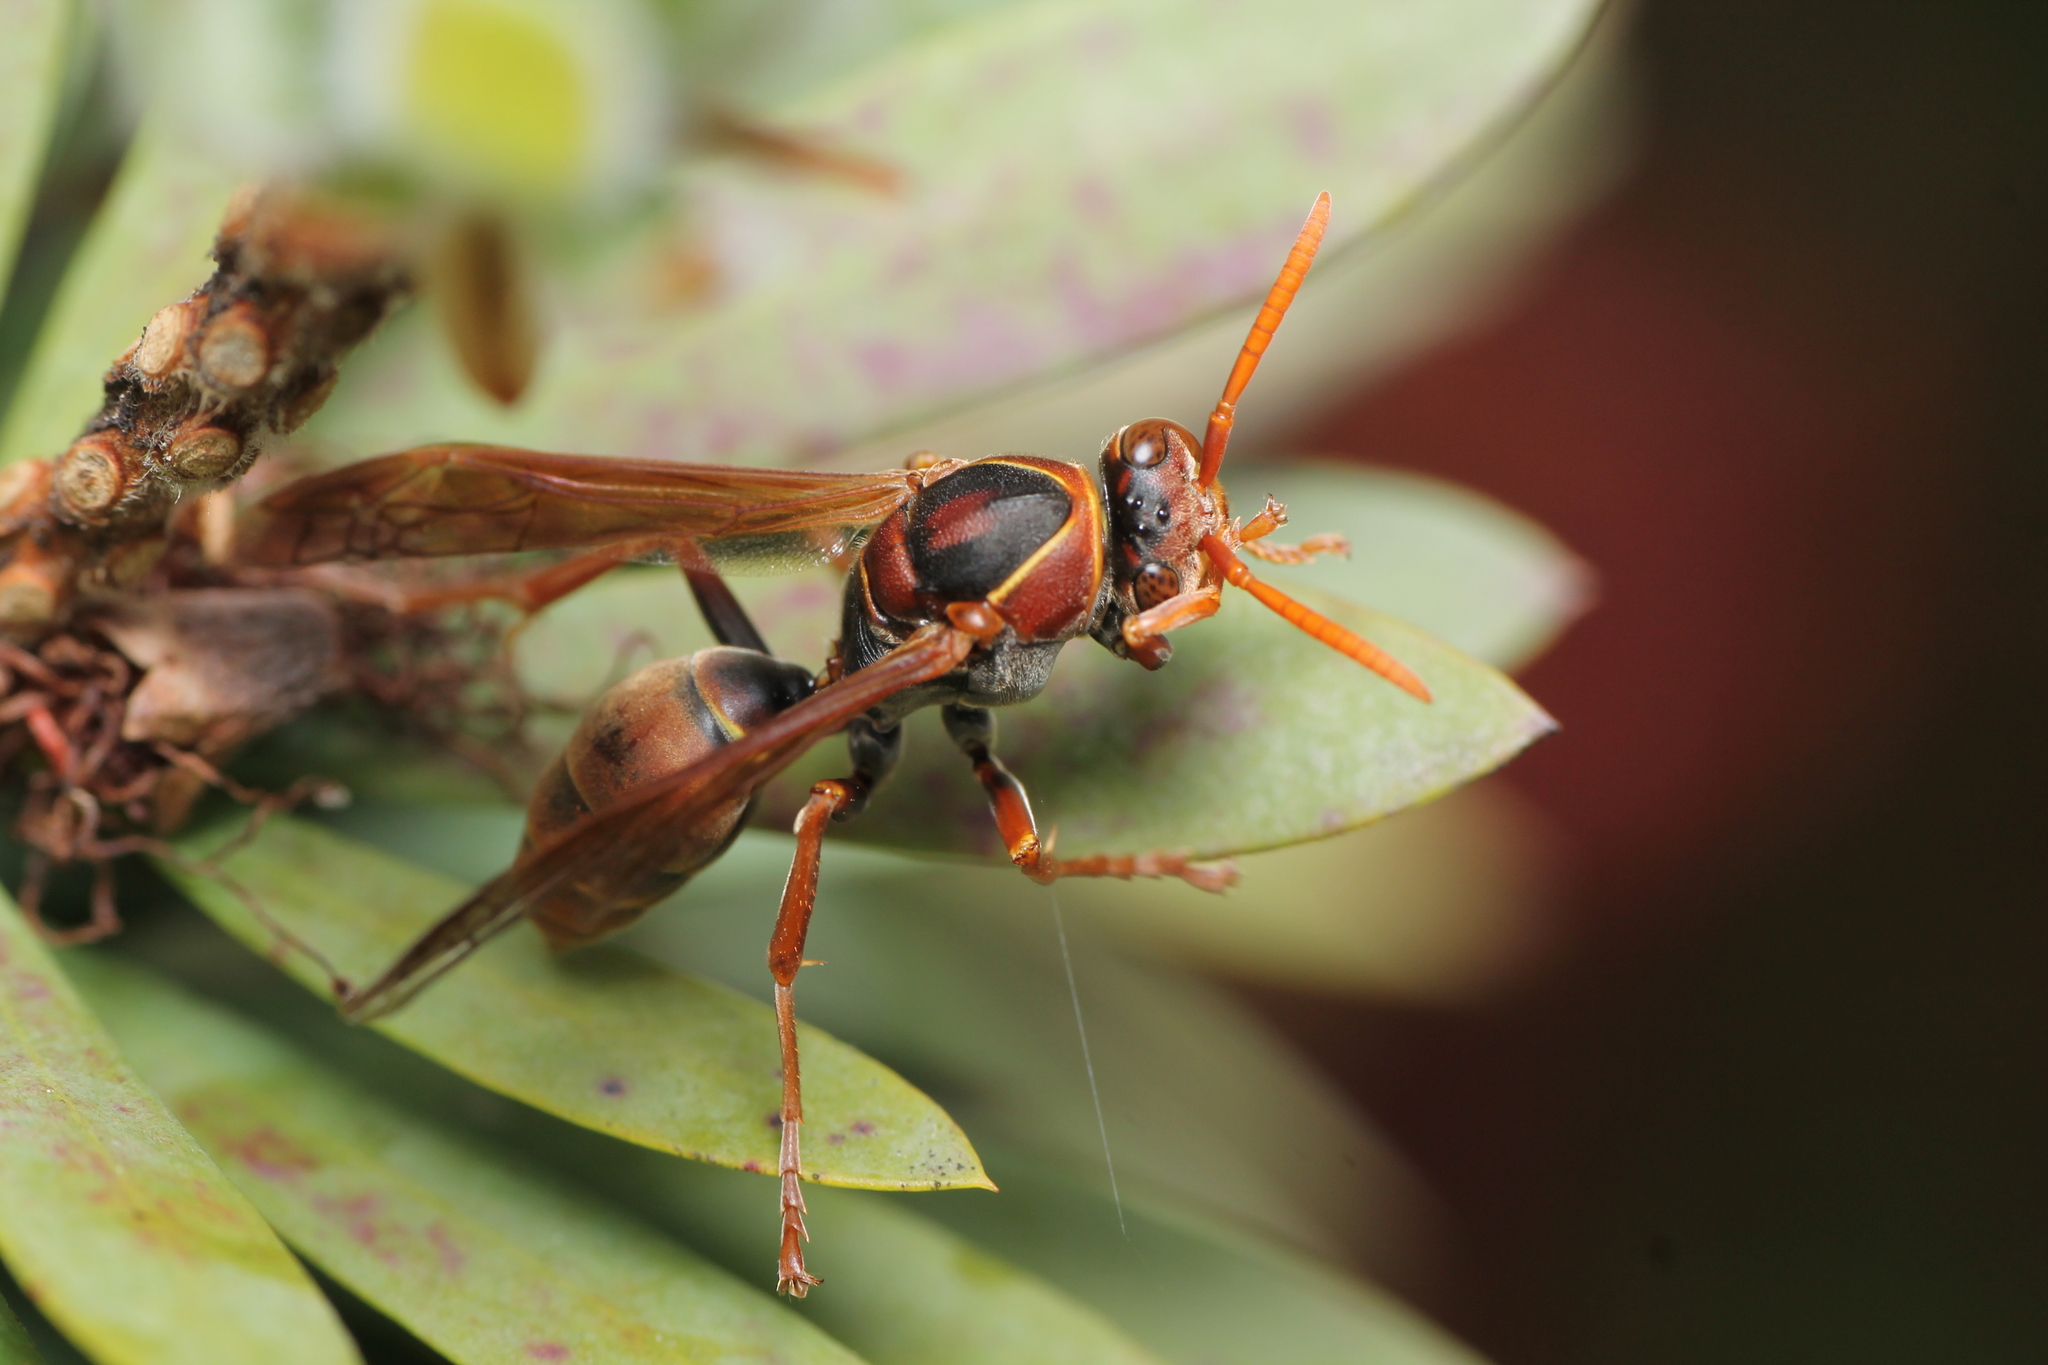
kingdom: Animalia
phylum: Arthropoda
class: Insecta
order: Hymenoptera
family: Eumenidae
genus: Polistes
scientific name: Polistes humilis
